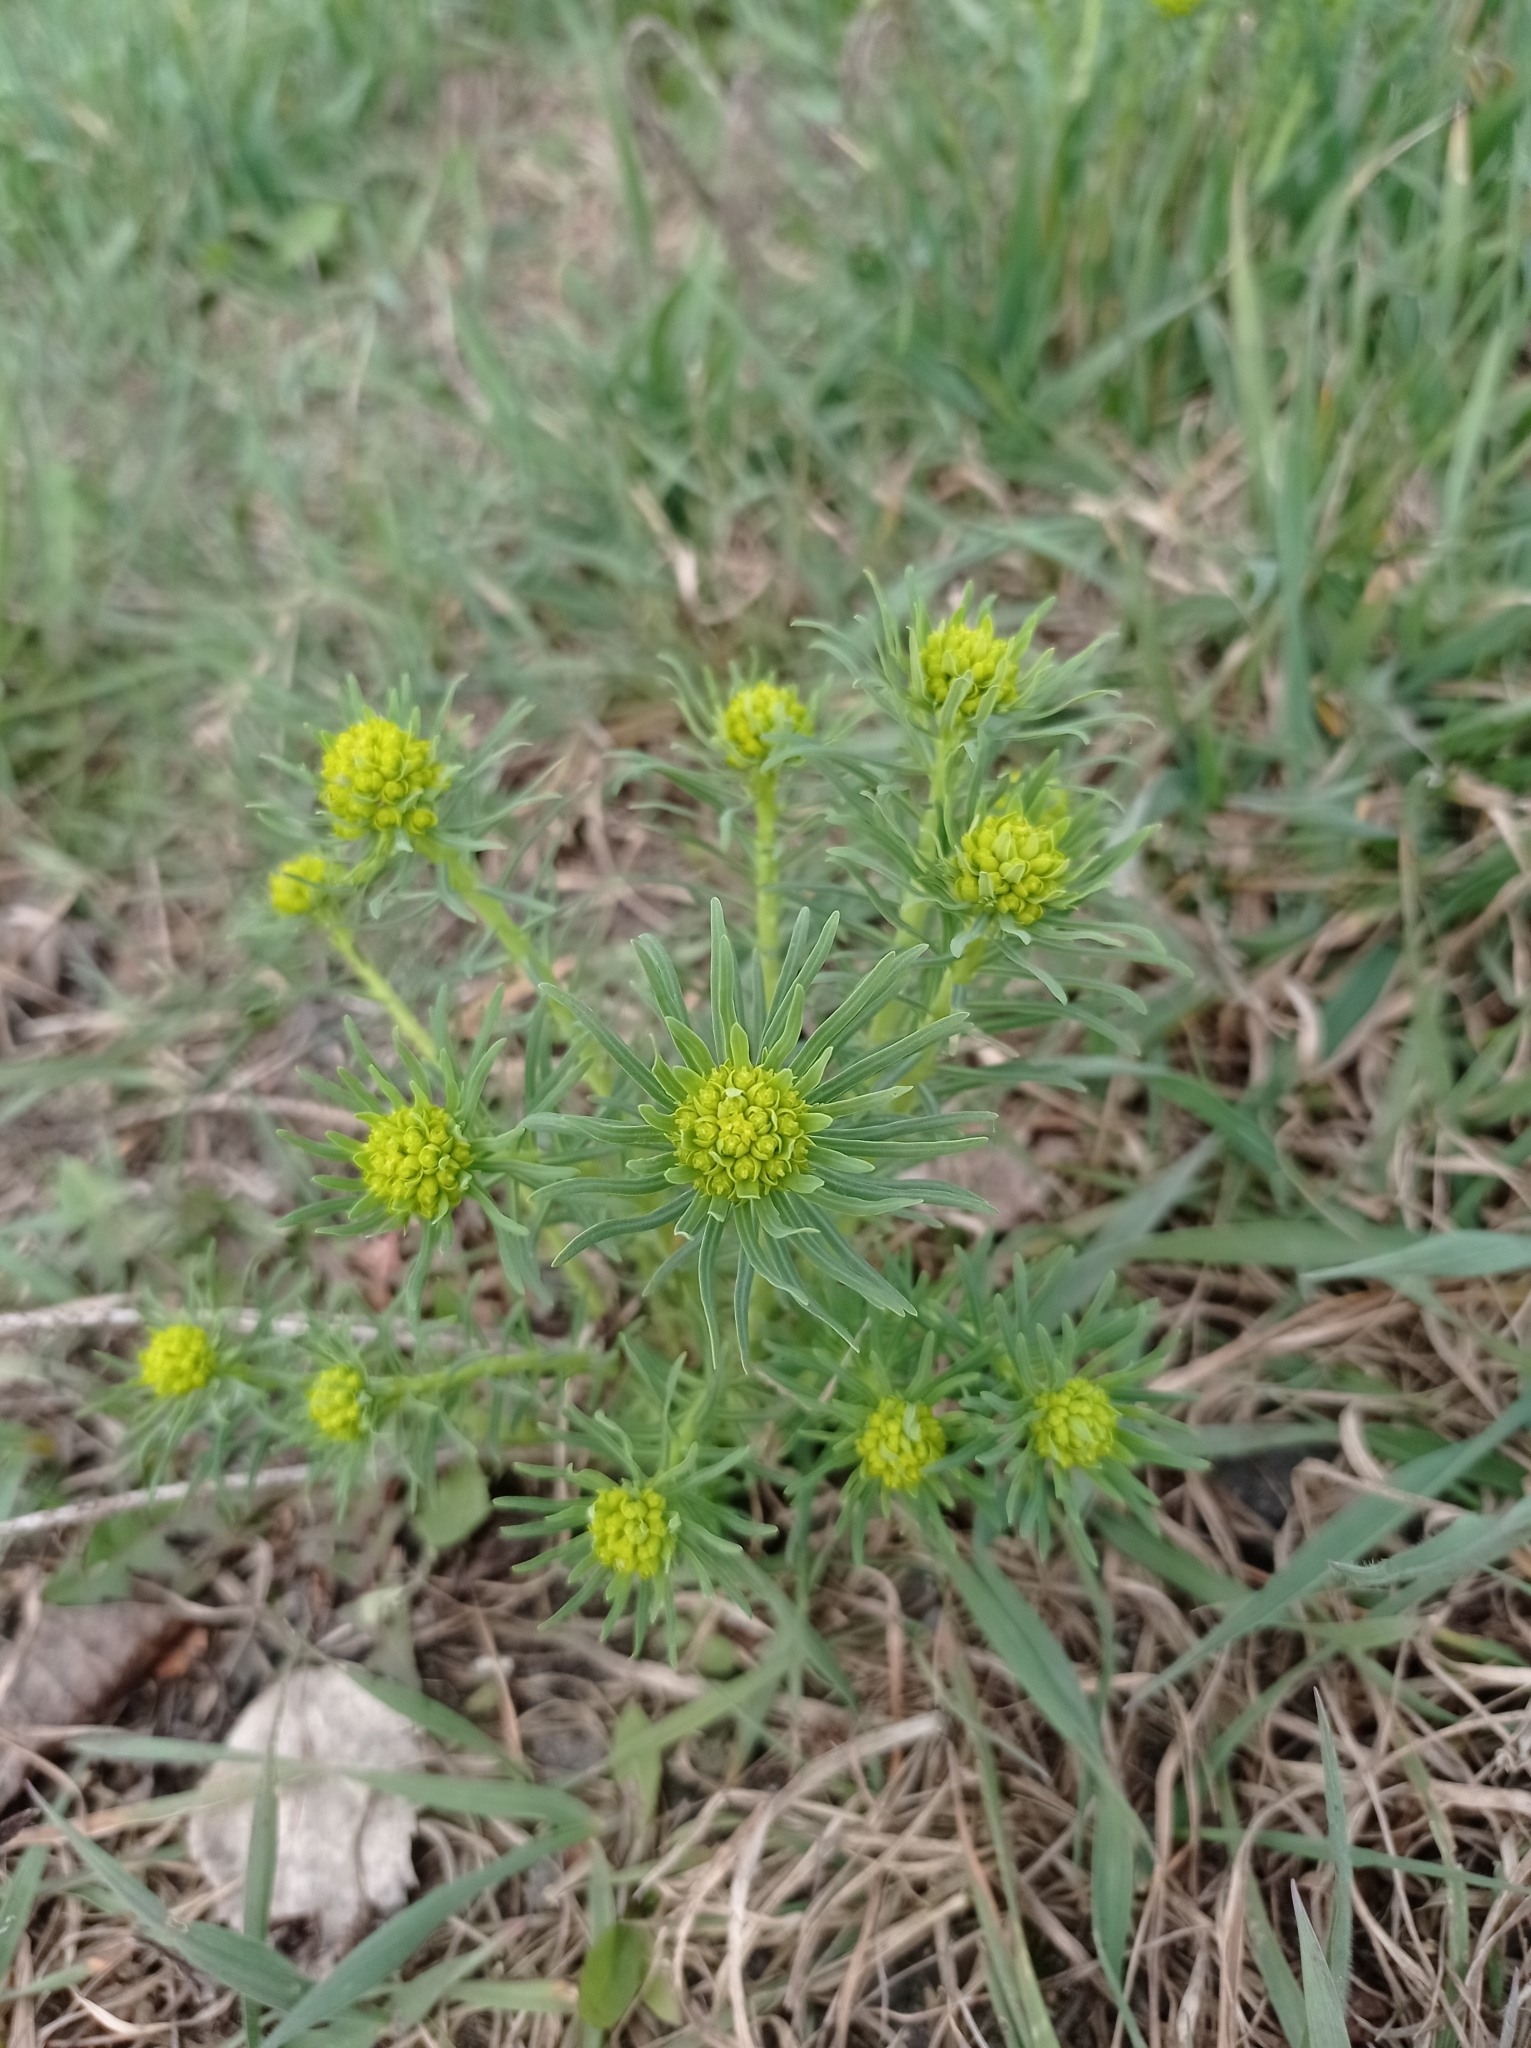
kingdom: Plantae
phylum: Tracheophyta
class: Magnoliopsida
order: Malpighiales
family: Euphorbiaceae
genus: Euphorbia
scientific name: Euphorbia cyparissias
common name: Cypress spurge
